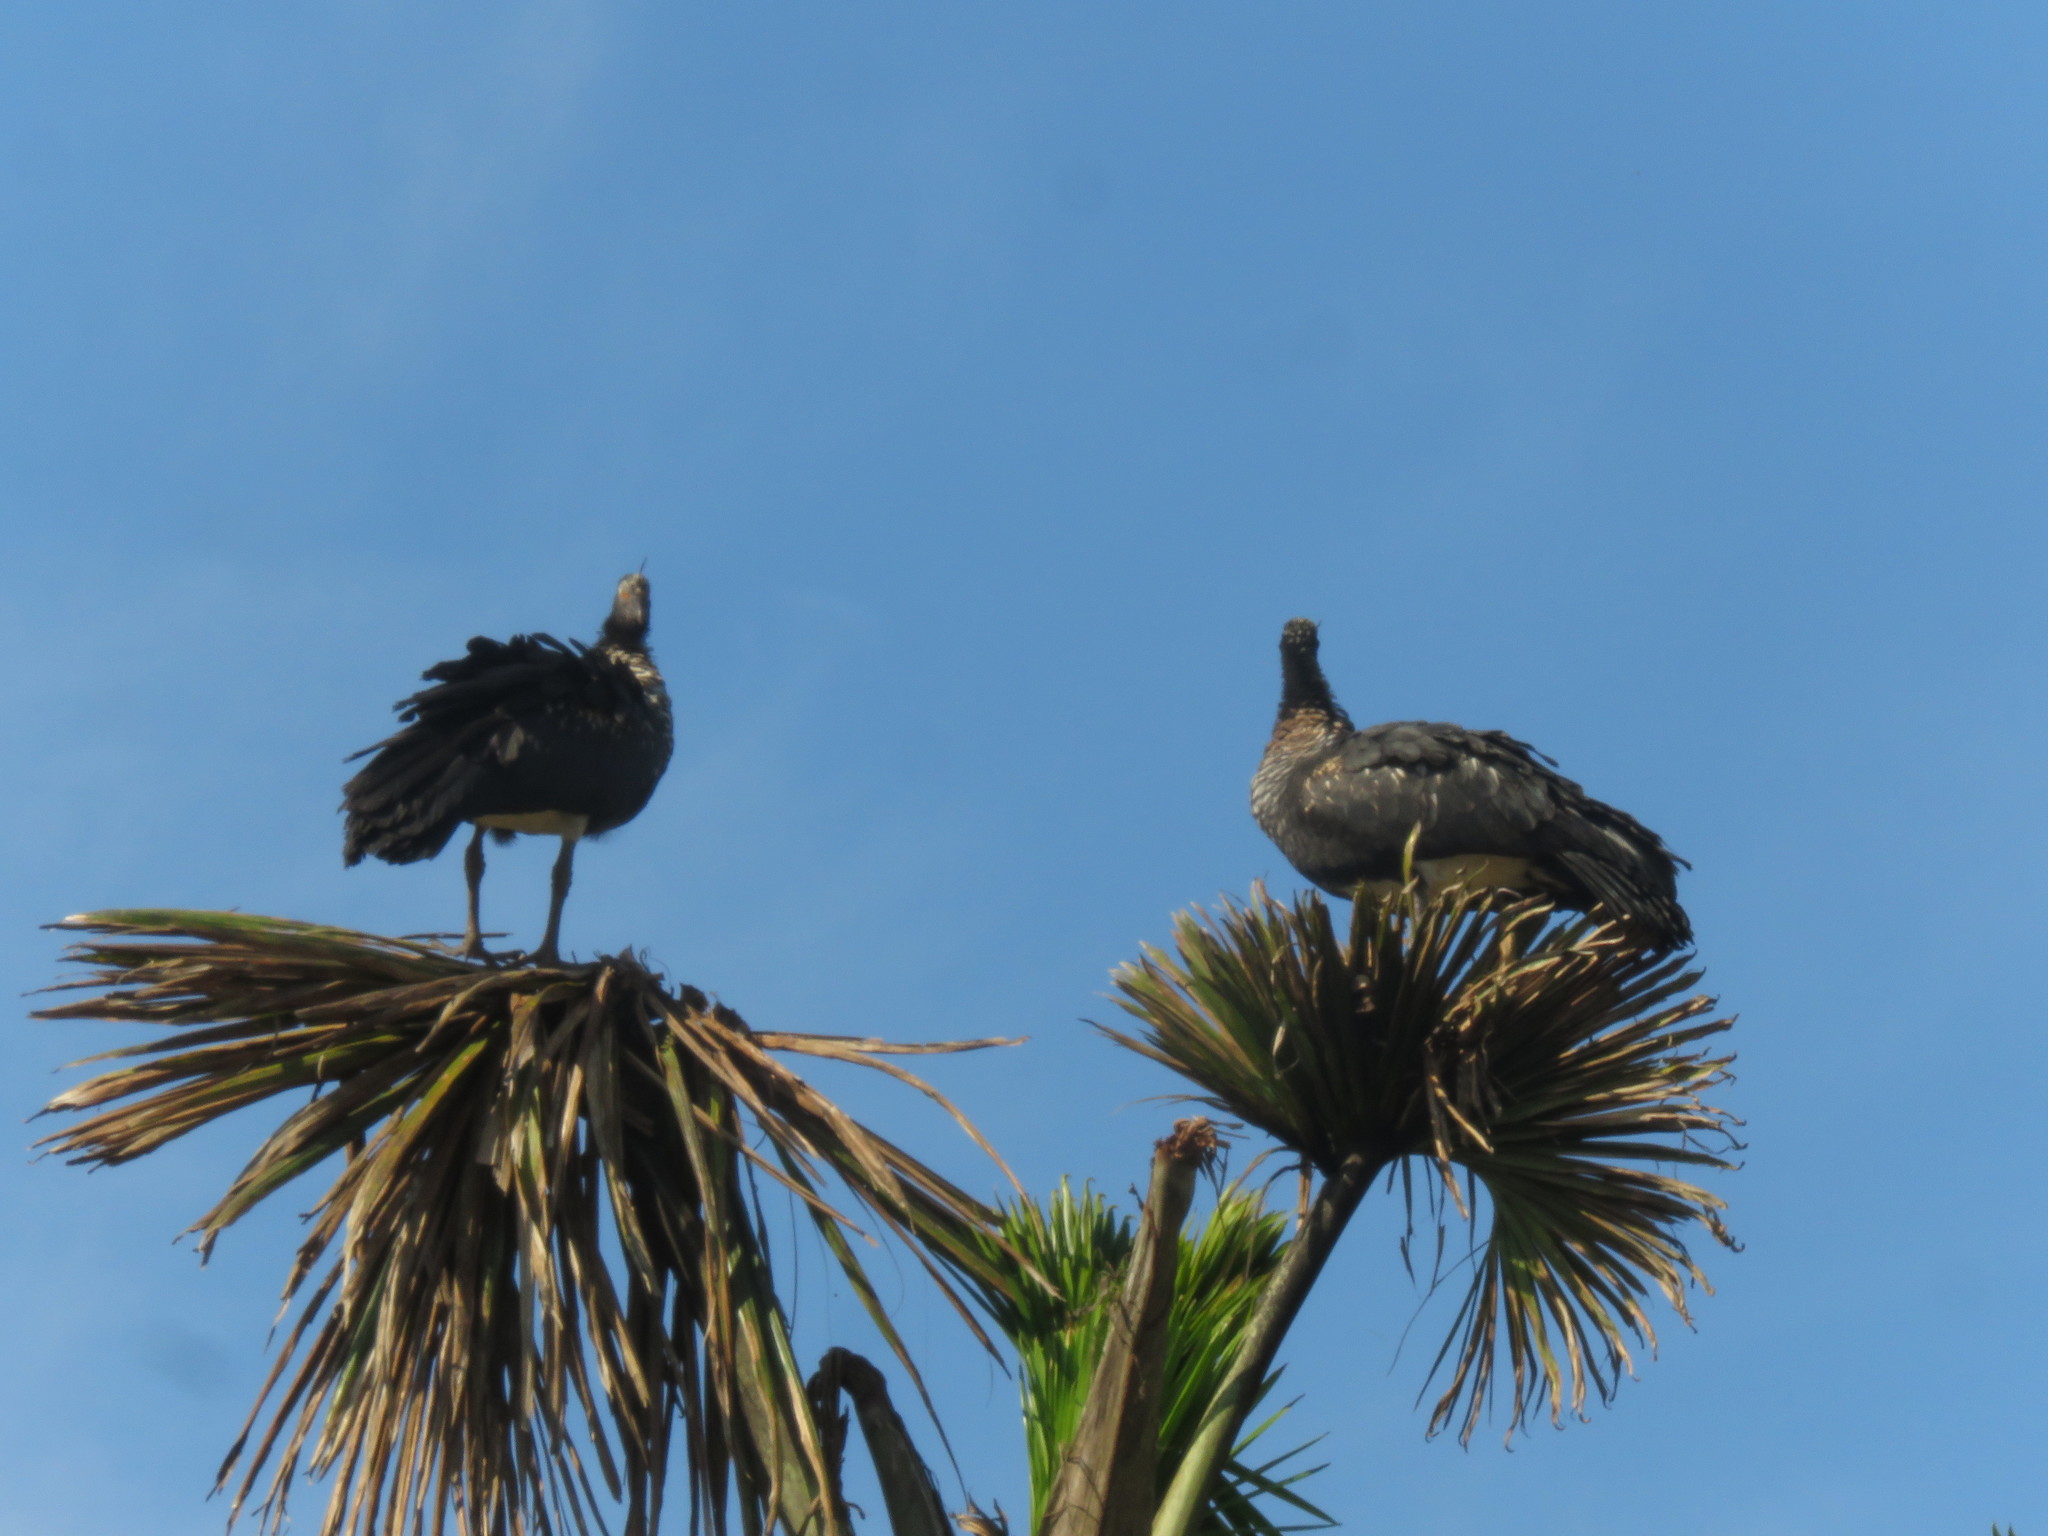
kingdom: Animalia
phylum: Chordata
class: Aves
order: Anseriformes
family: Anhimidae
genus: Anhima
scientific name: Anhima cornuta
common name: Horned screamer
